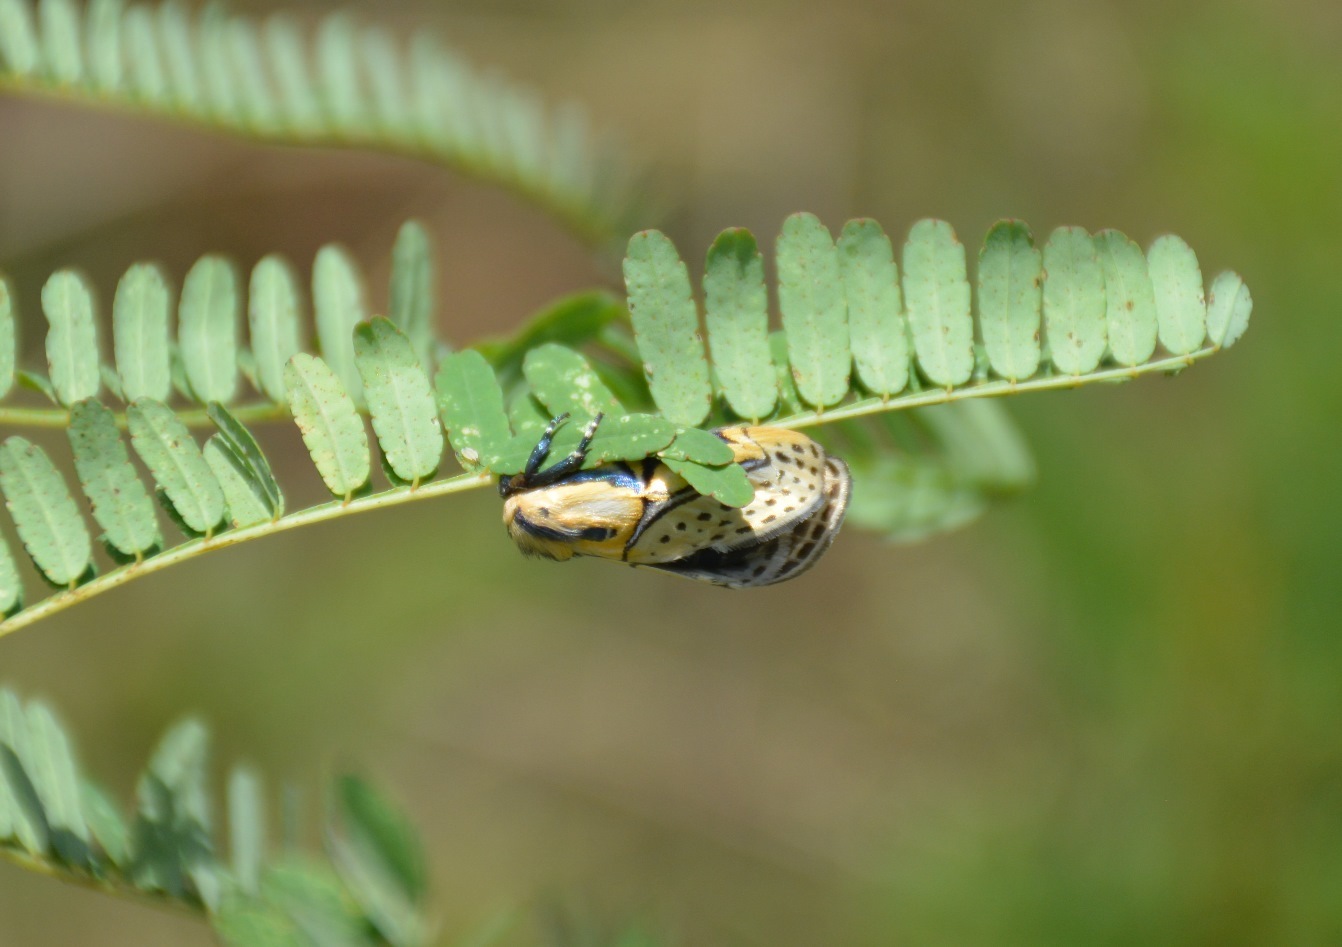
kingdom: Animalia
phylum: Arthropoda
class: Insecta
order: Lepidoptera
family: Erebidae
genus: Diphthera
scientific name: Diphthera festiva
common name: Hieroglyphic moth
